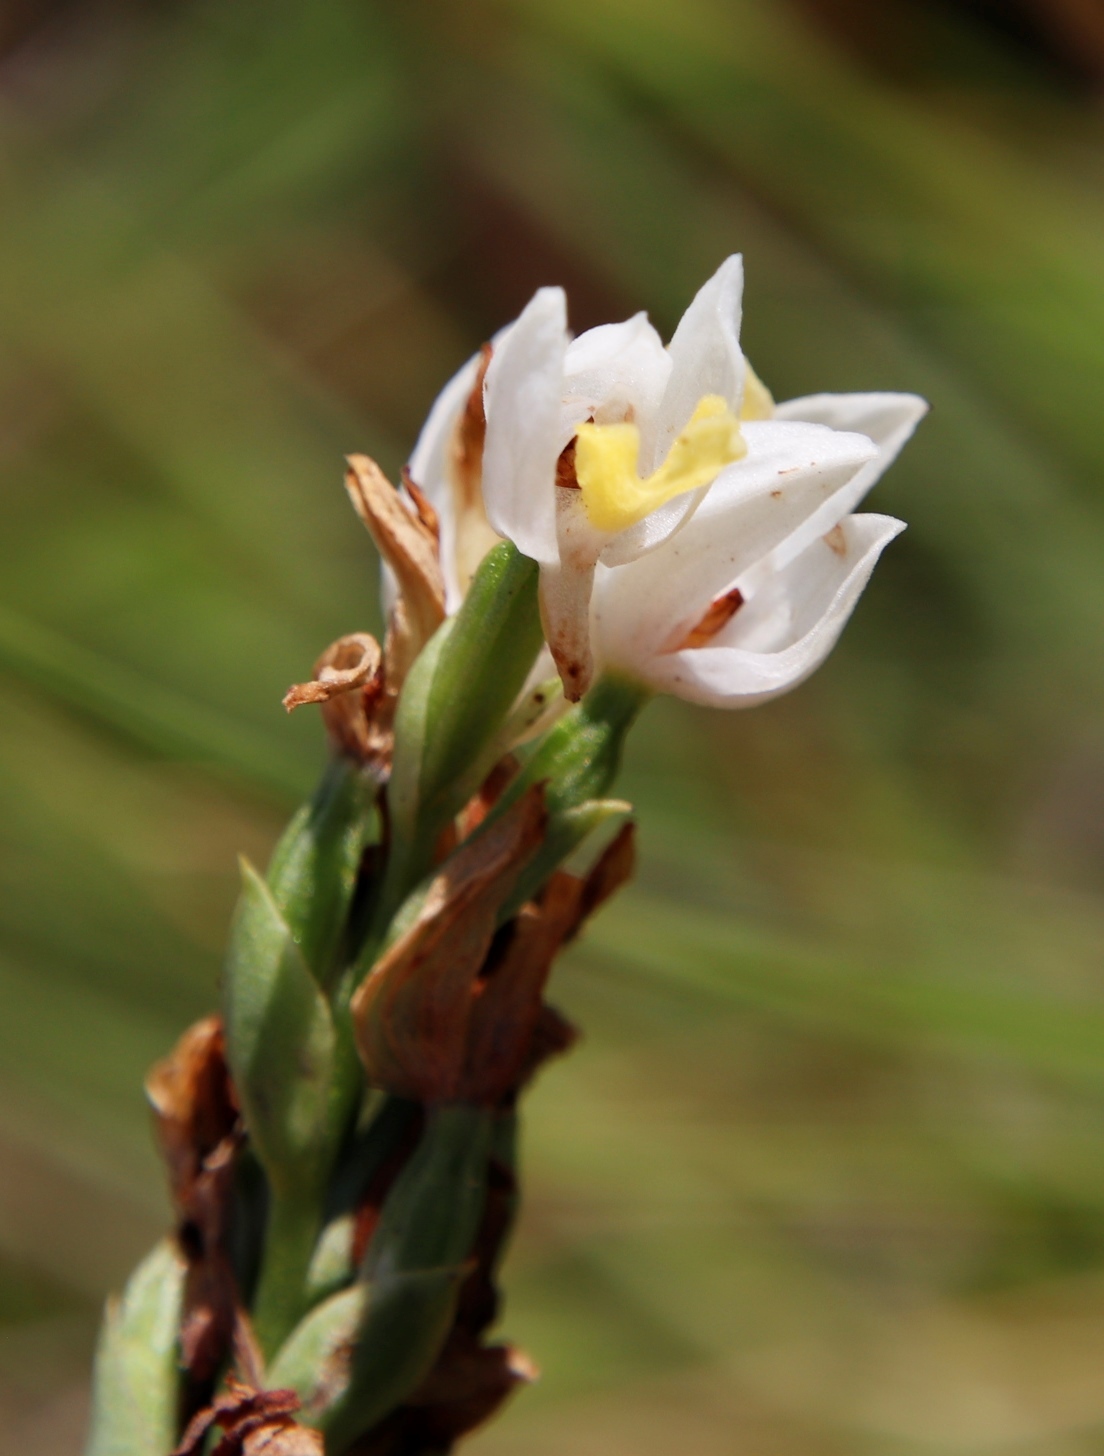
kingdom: Plantae
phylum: Tracheophyta
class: Liliopsida
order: Asparagales
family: Orchidaceae
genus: Schizochilus
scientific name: Schizochilus flexuosus
